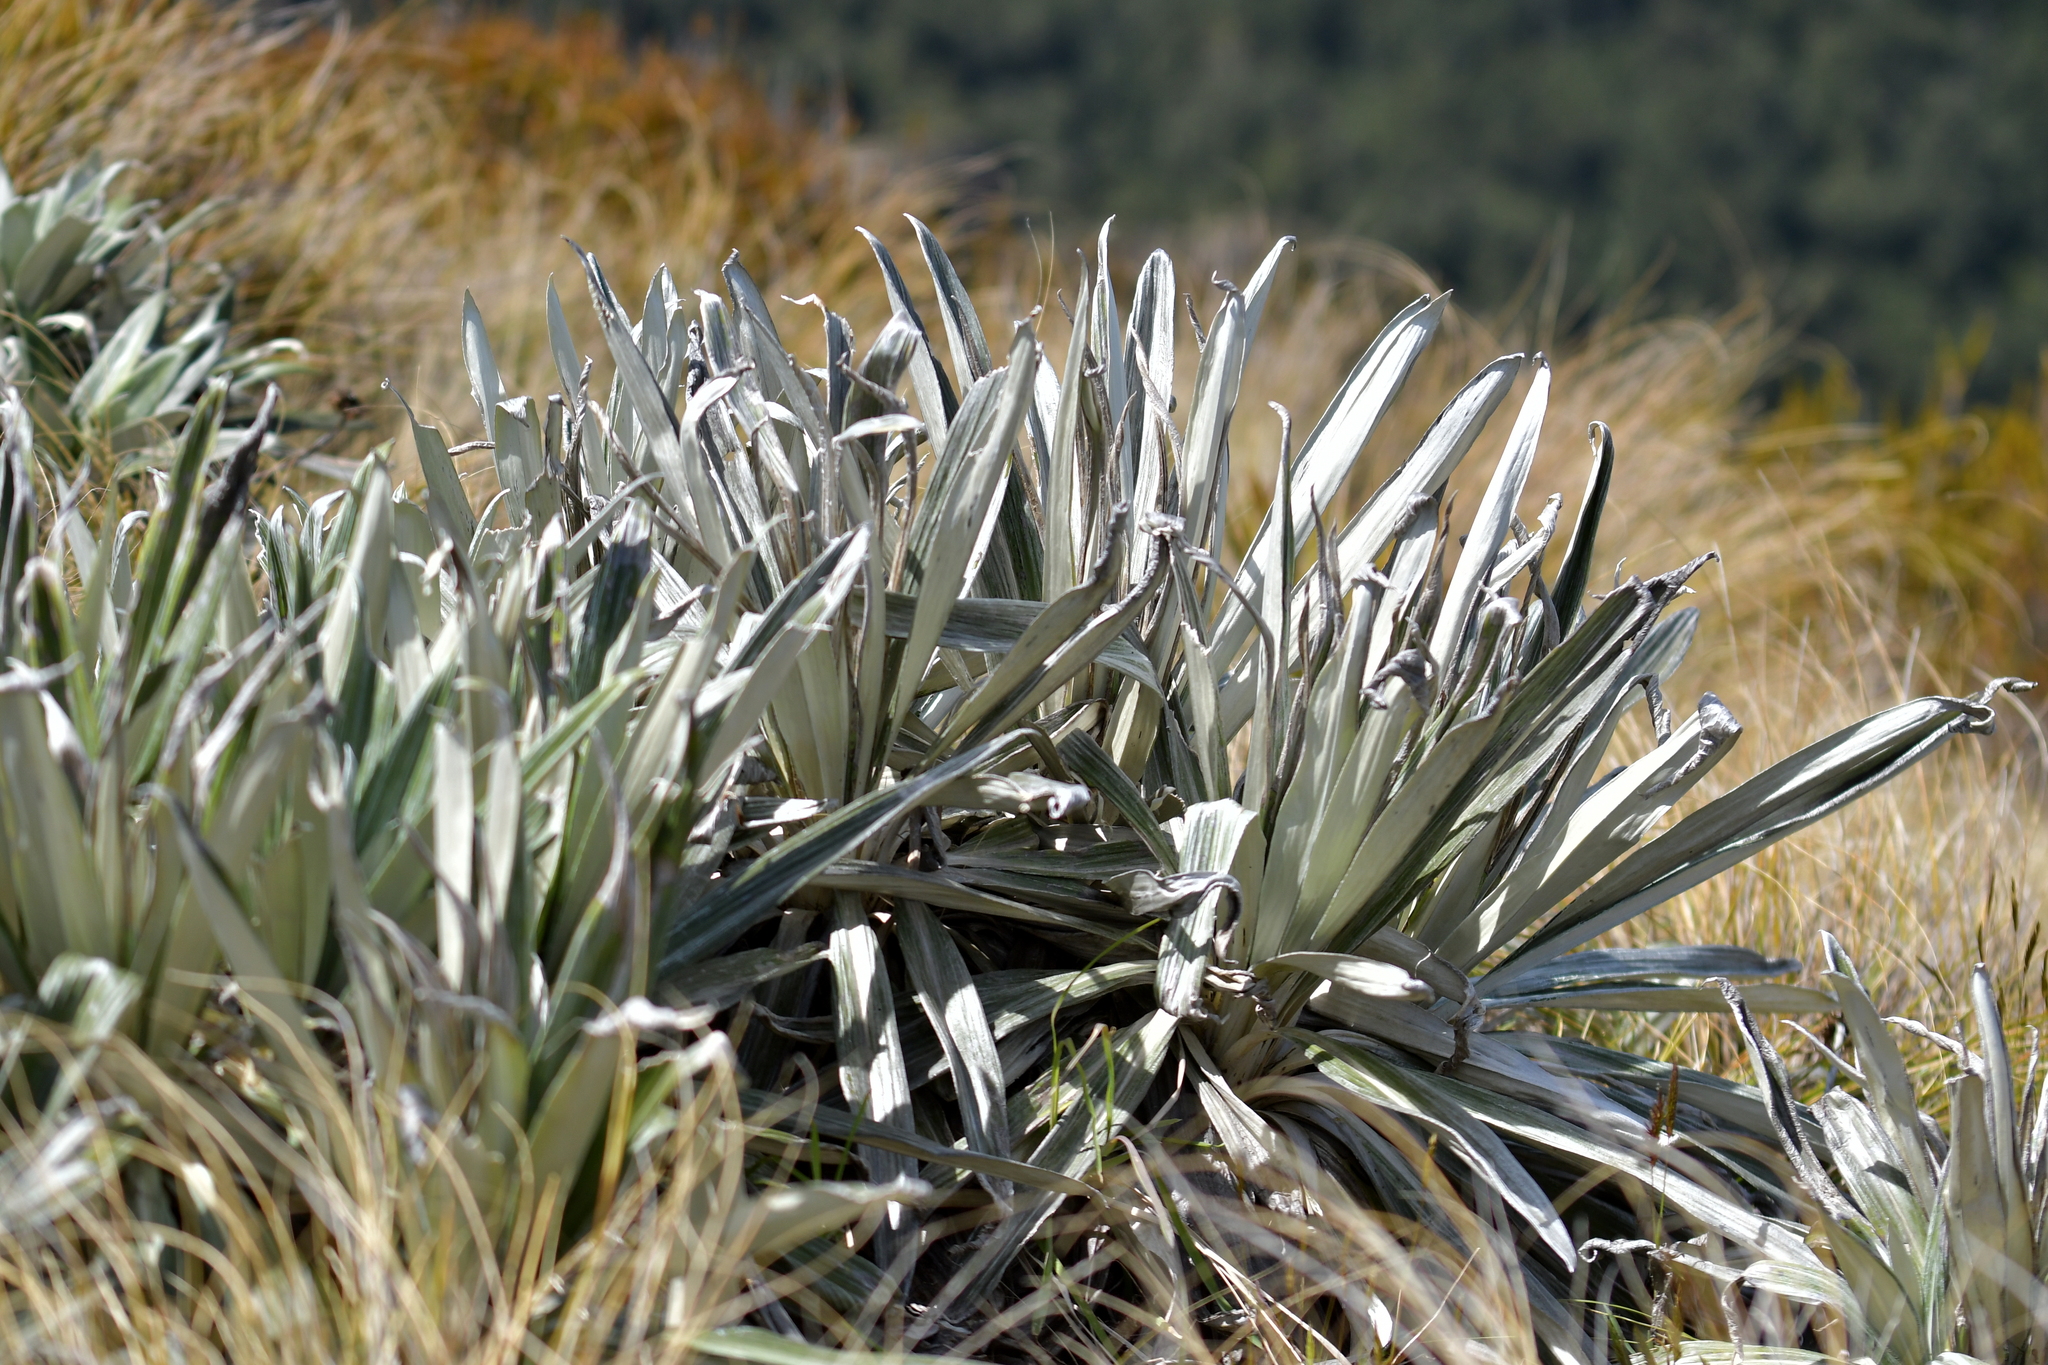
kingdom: Plantae
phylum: Tracheophyta
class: Magnoliopsida
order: Asterales
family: Asteraceae
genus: Celmisia
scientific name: Celmisia semicordata
